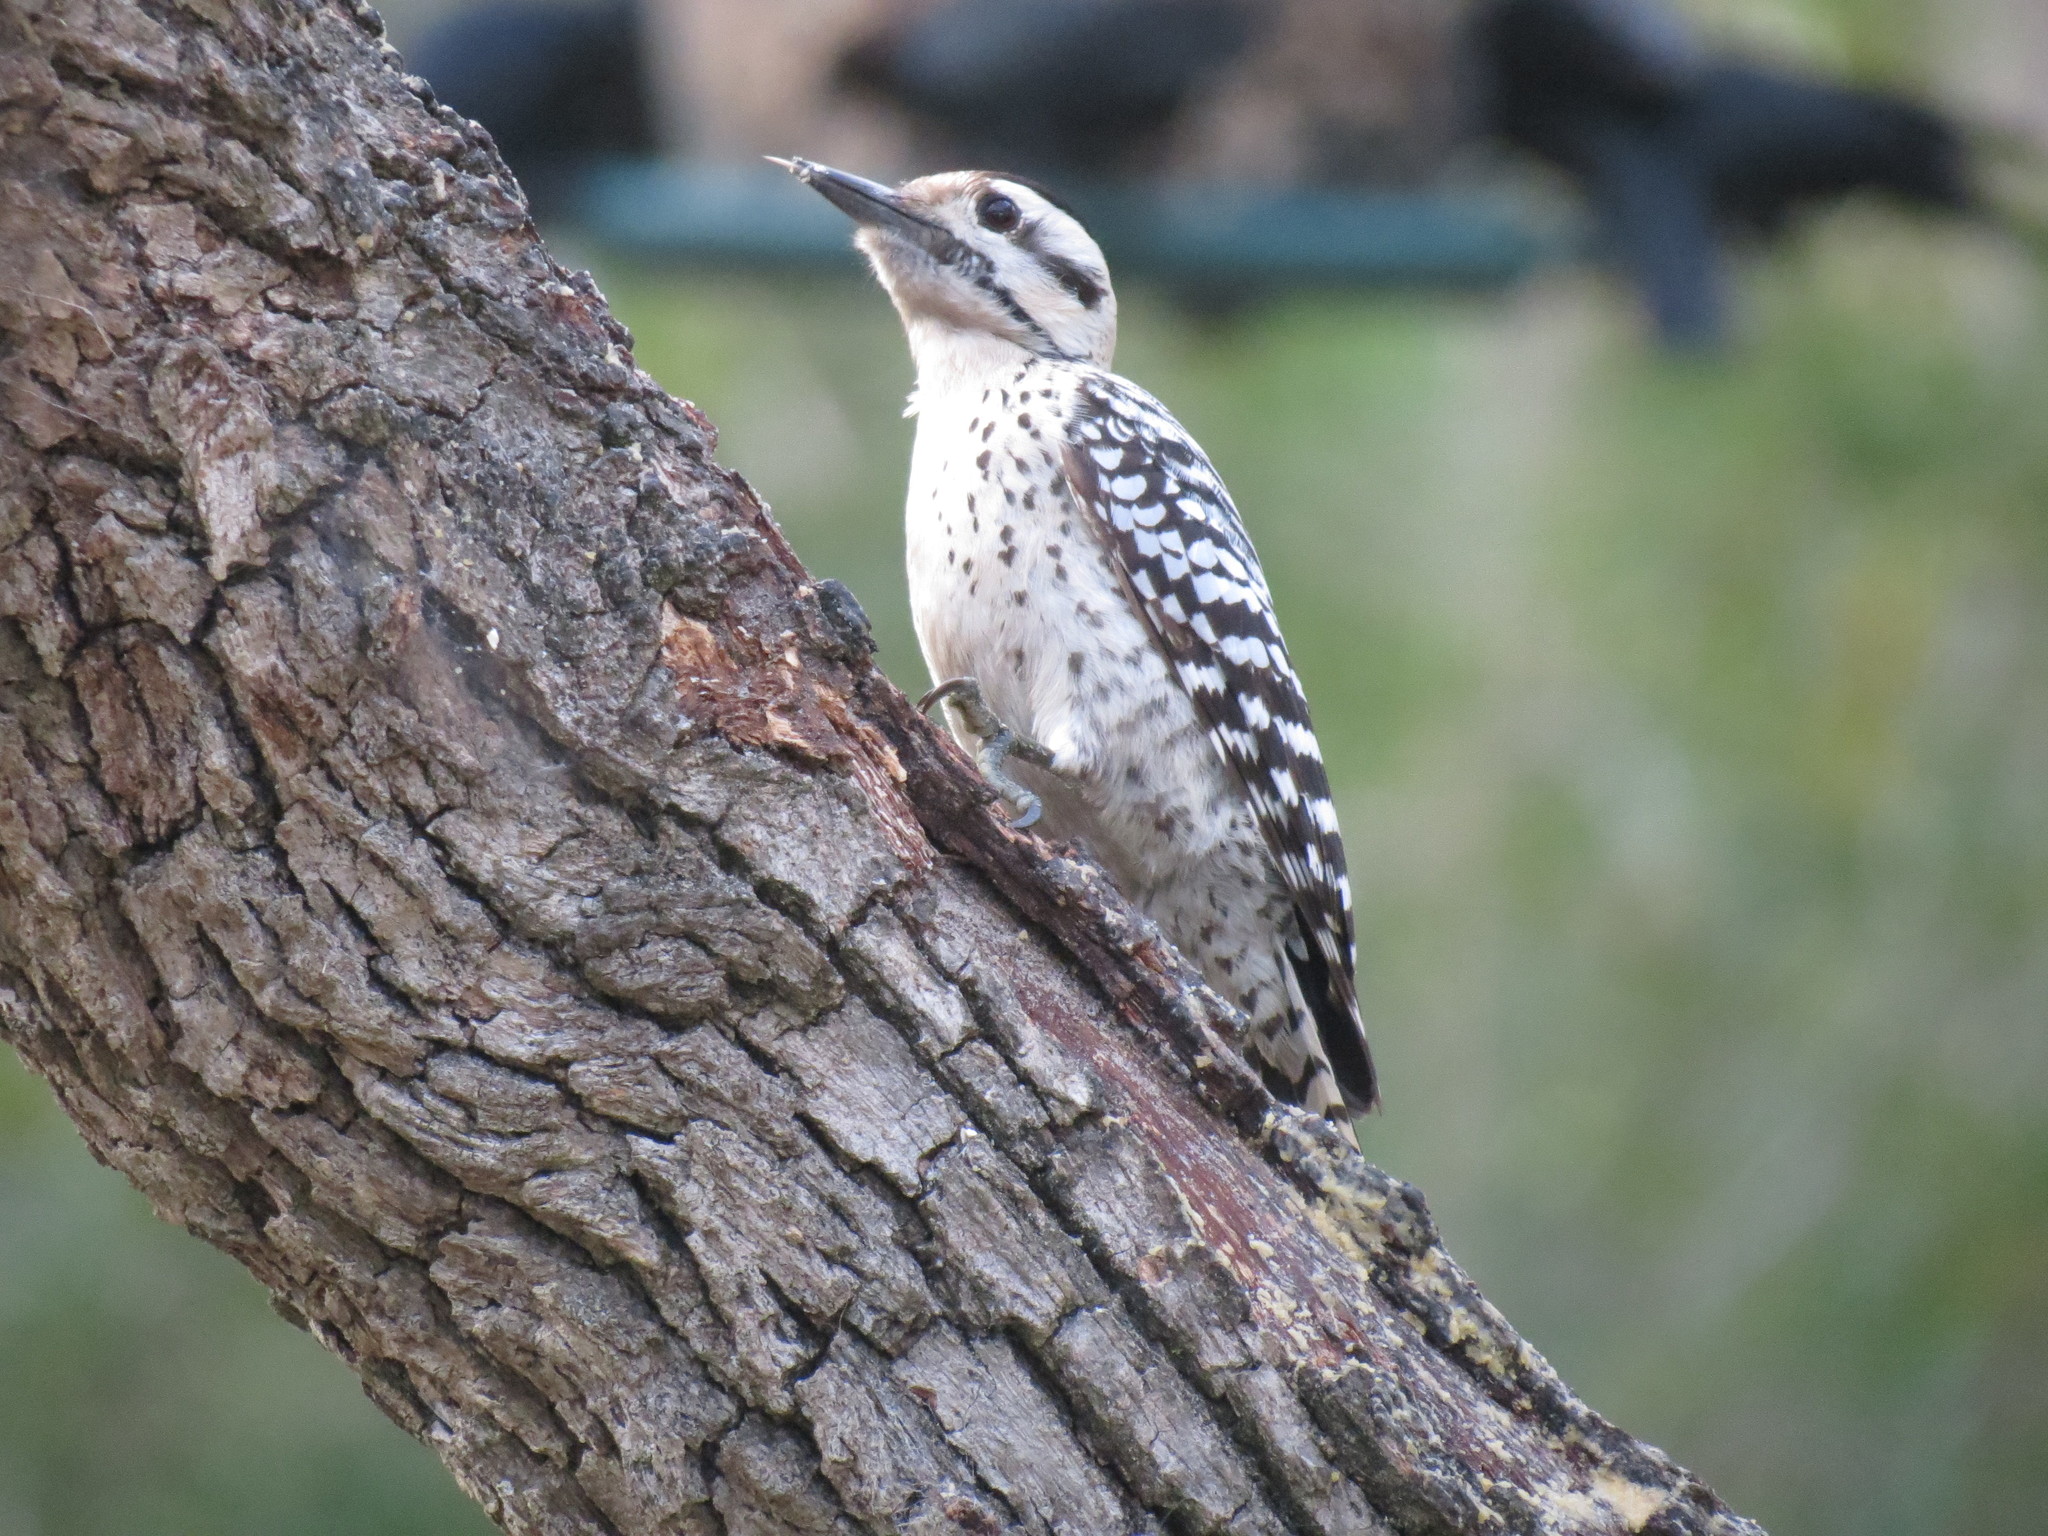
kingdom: Animalia
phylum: Chordata
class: Aves
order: Piciformes
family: Picidae
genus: Dryobates
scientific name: Dryobates scalaris
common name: Ladder-backed woodpecker
